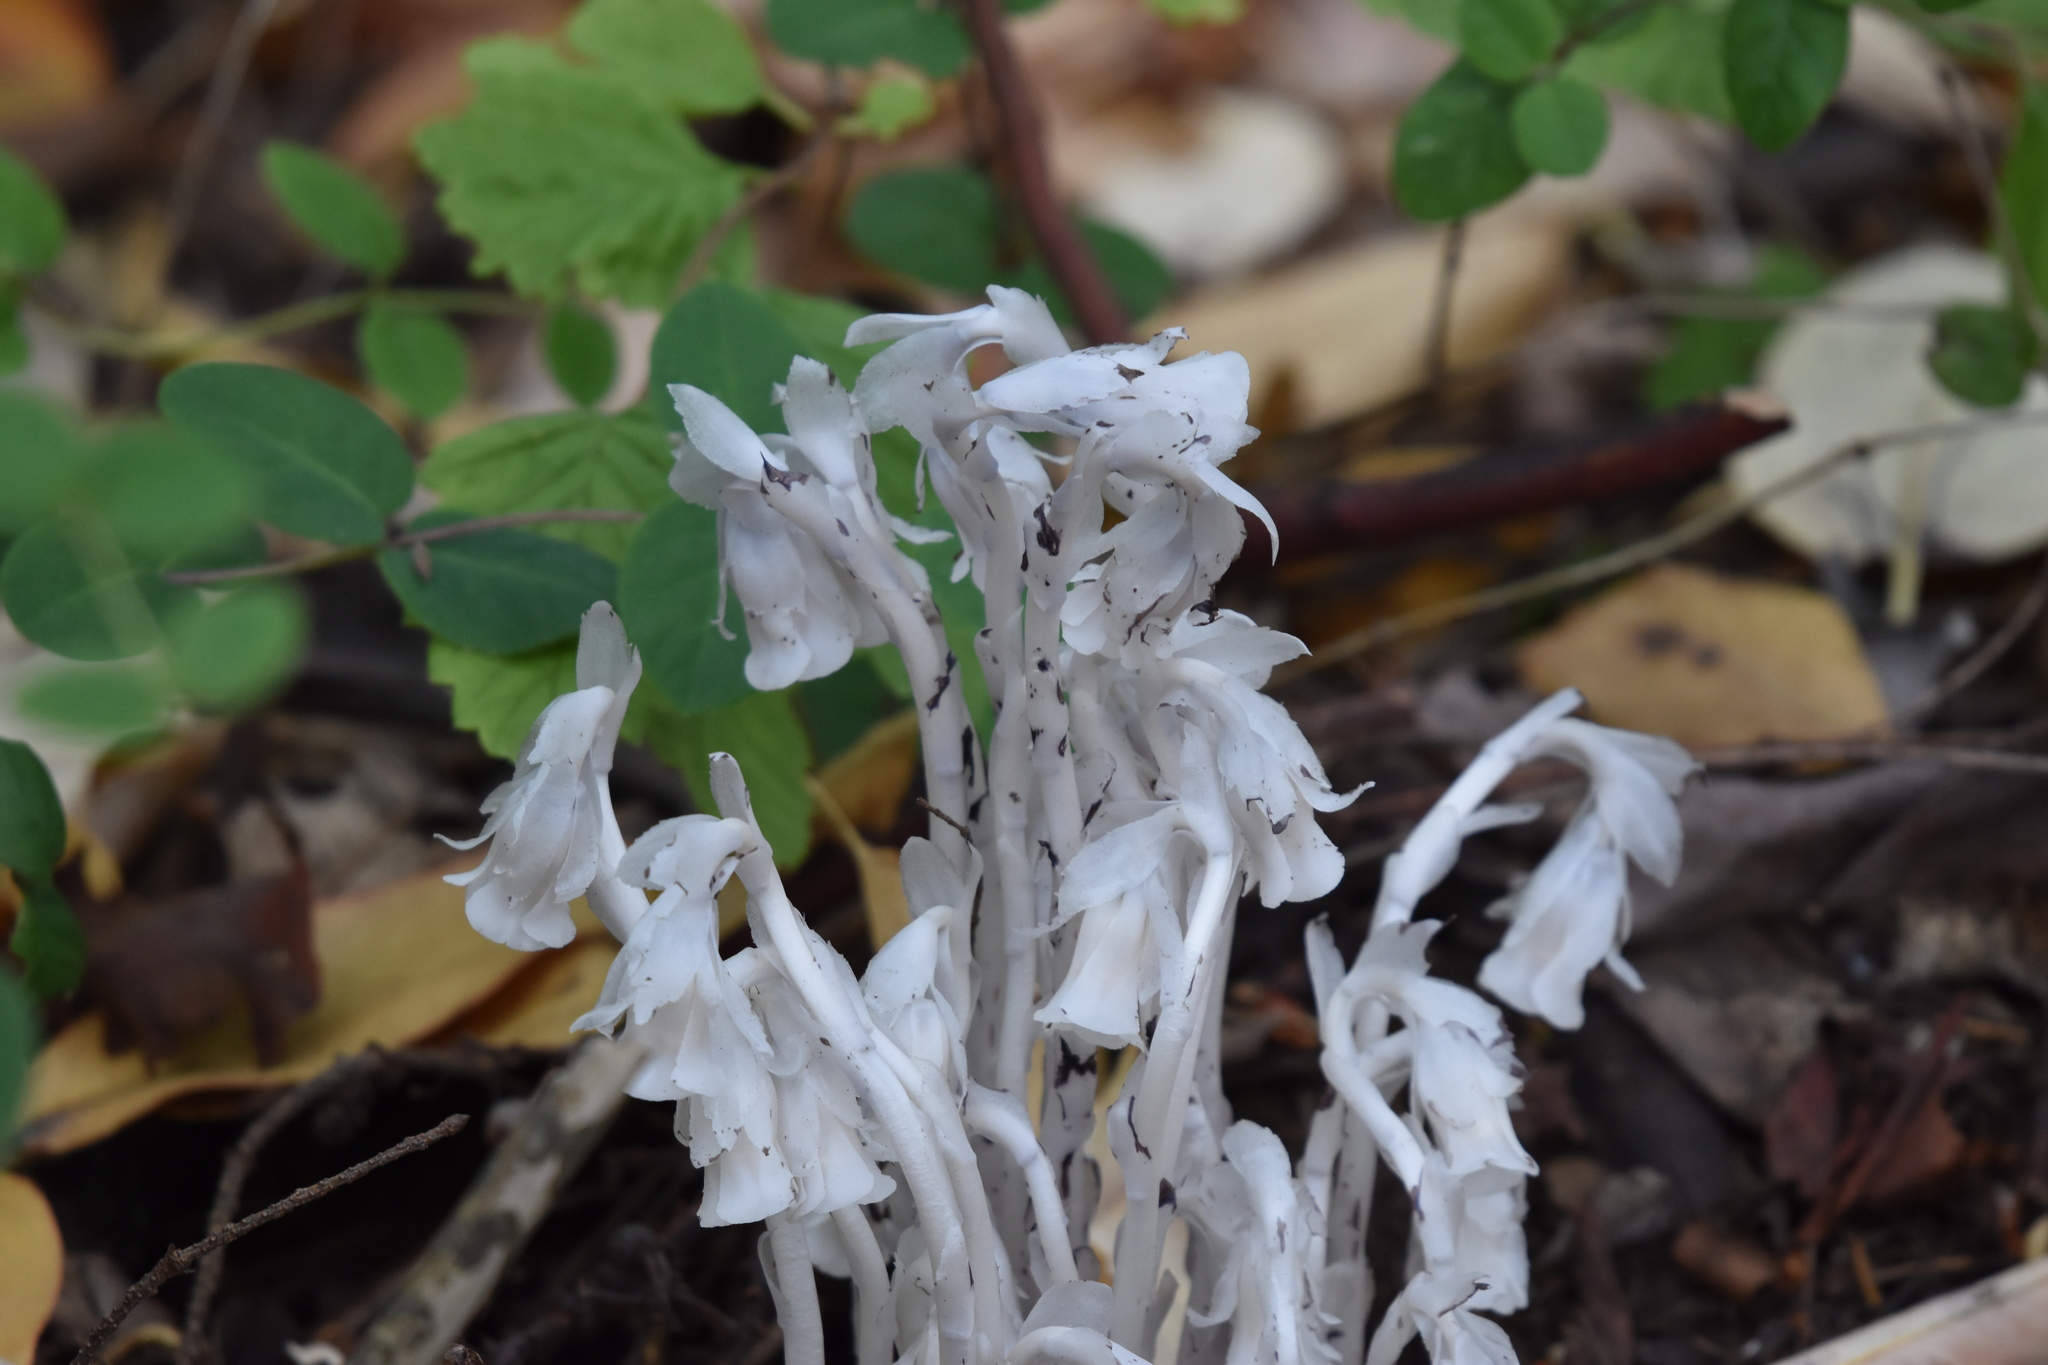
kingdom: Plantae
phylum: Tracheophyta
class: Magnoliopsida
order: Ericales
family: Ericaceae
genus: Monotropa
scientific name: Monotropa uniflora
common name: Convulsion root
